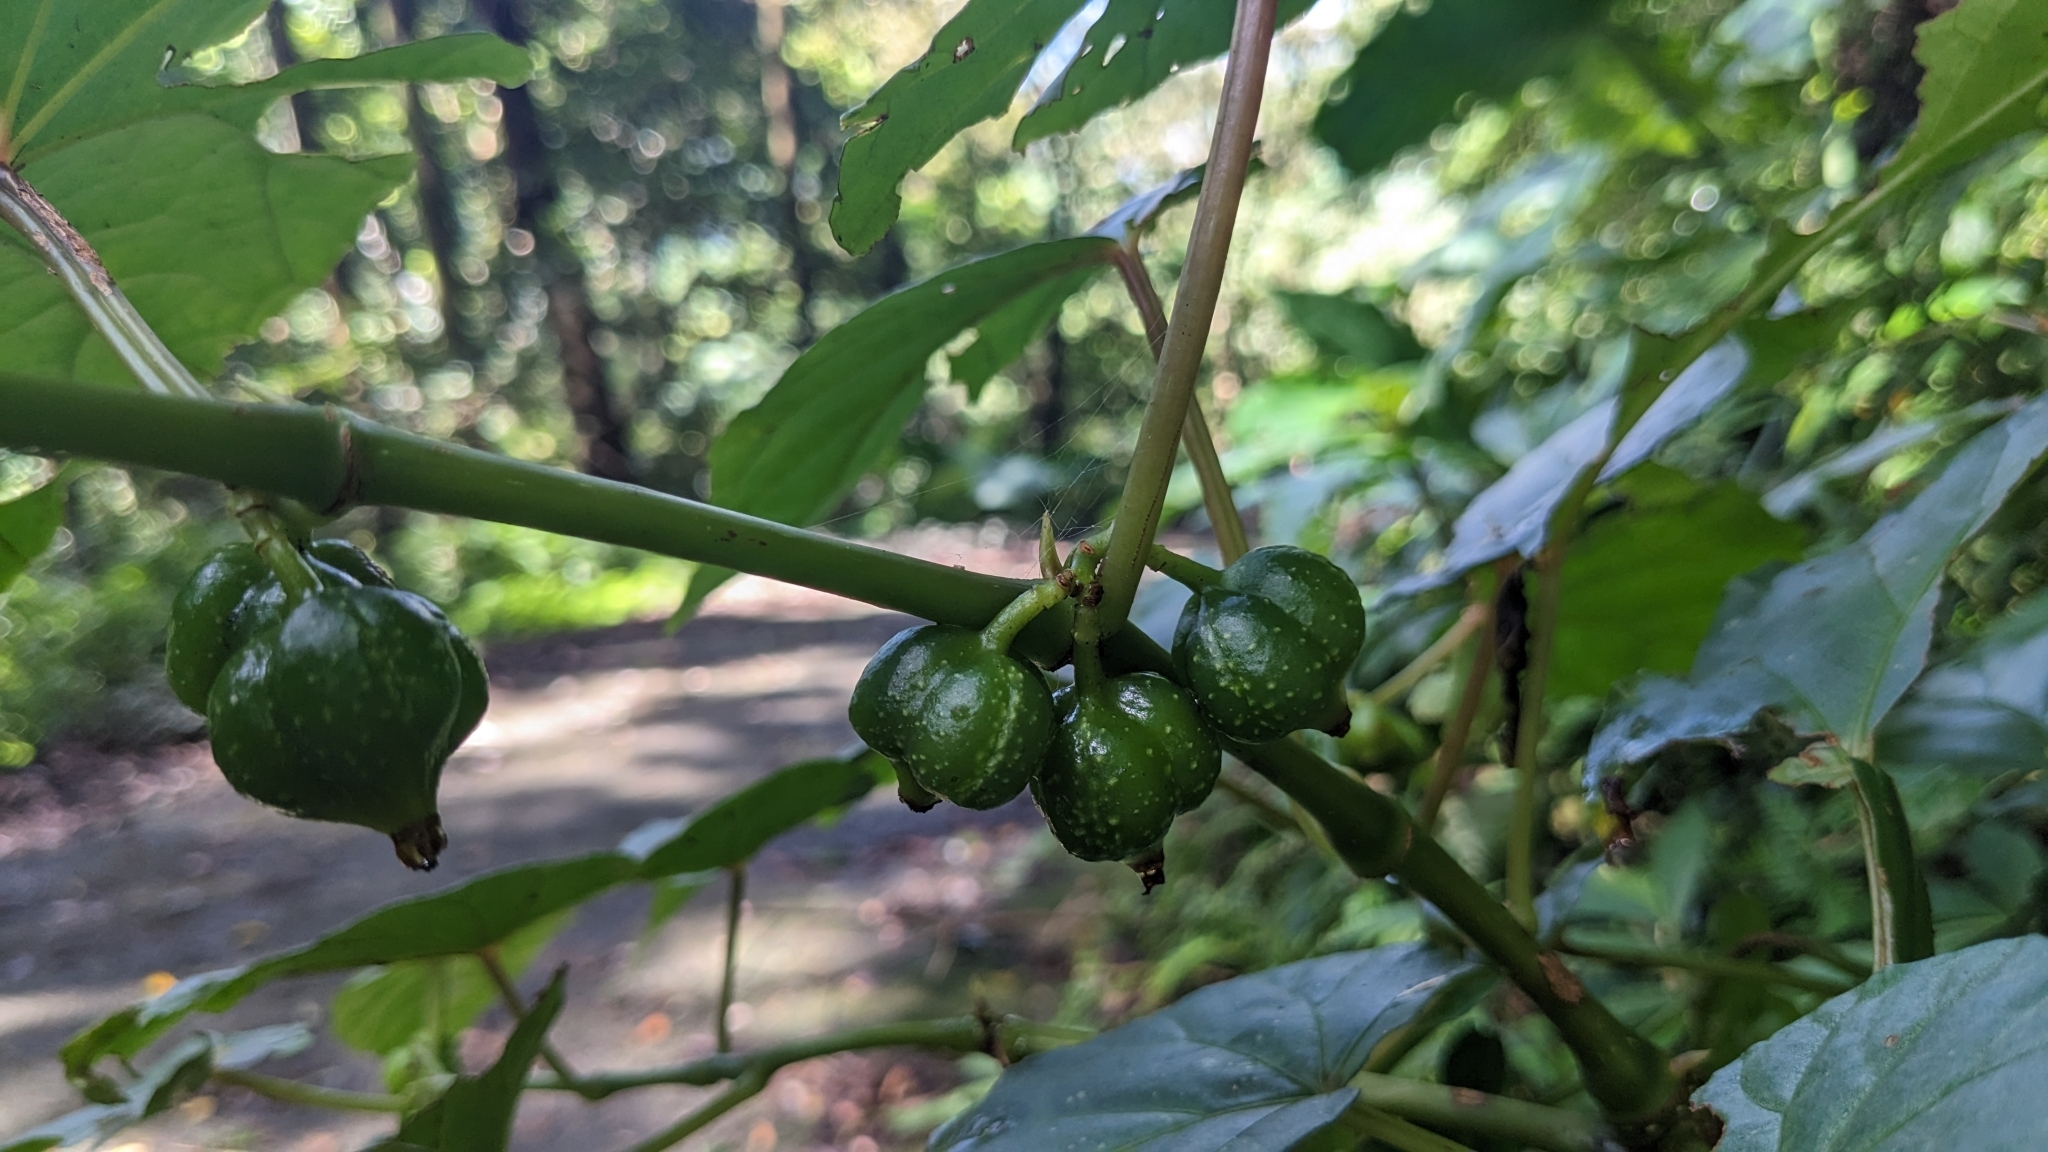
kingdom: Plantae
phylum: Tracheophyta
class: Magnoliopsida
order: Cucurbitales
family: Begoniaceae
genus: Begonia
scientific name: Begonia longifolia
